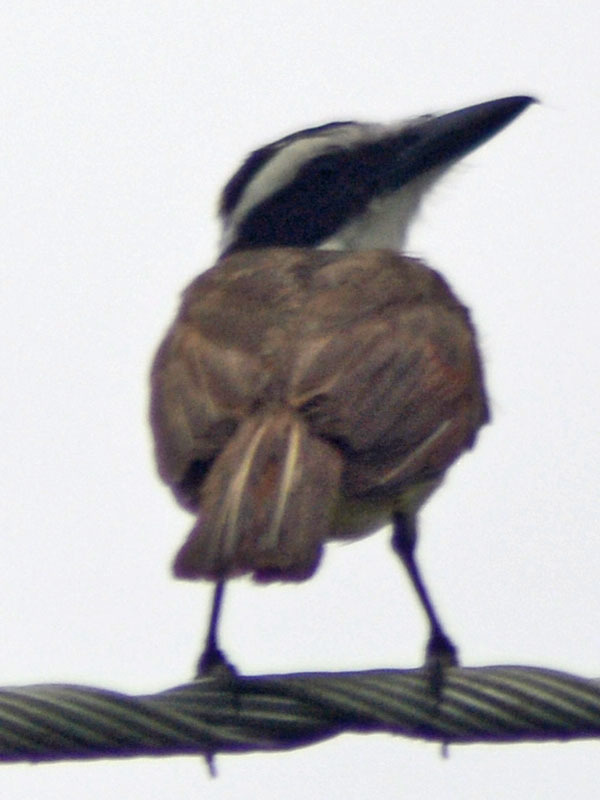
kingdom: Animalia
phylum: Chordata
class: Aves
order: Passeriformes
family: Tyrannidae
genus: Pitangus
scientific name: Pitangus sulphuratus
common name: Great kiskadee
